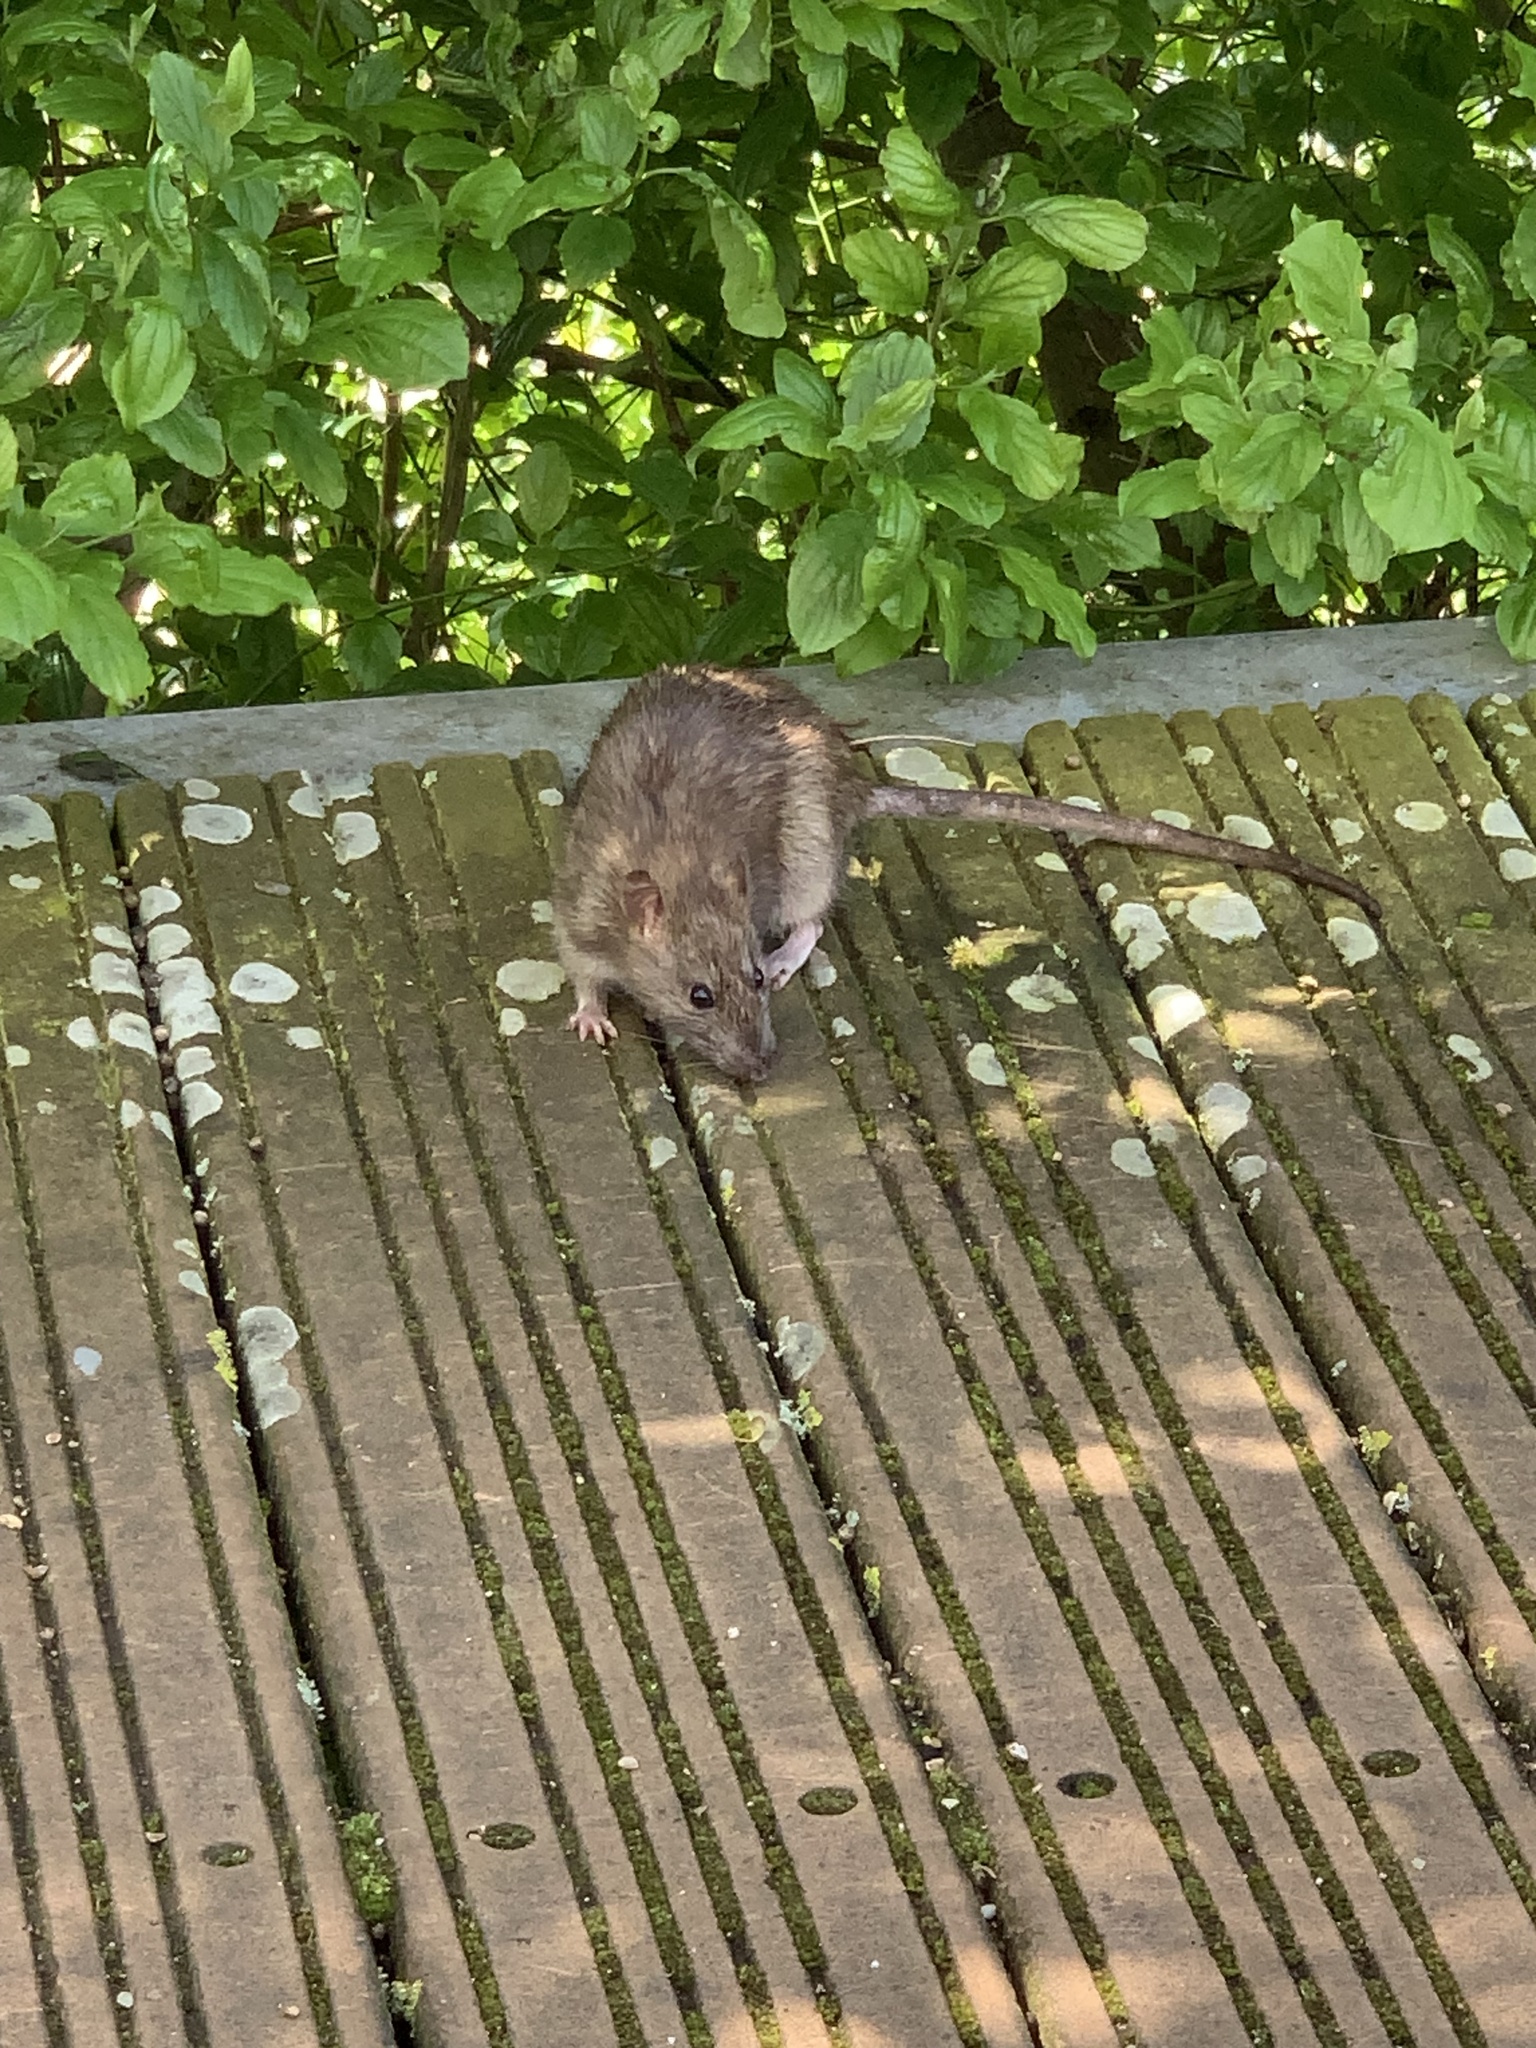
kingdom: Animalia
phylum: Chordata
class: Mammalia
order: Rodentia
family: Muridae
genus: Rattus
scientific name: Rattus norvegicus
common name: Brown rat
